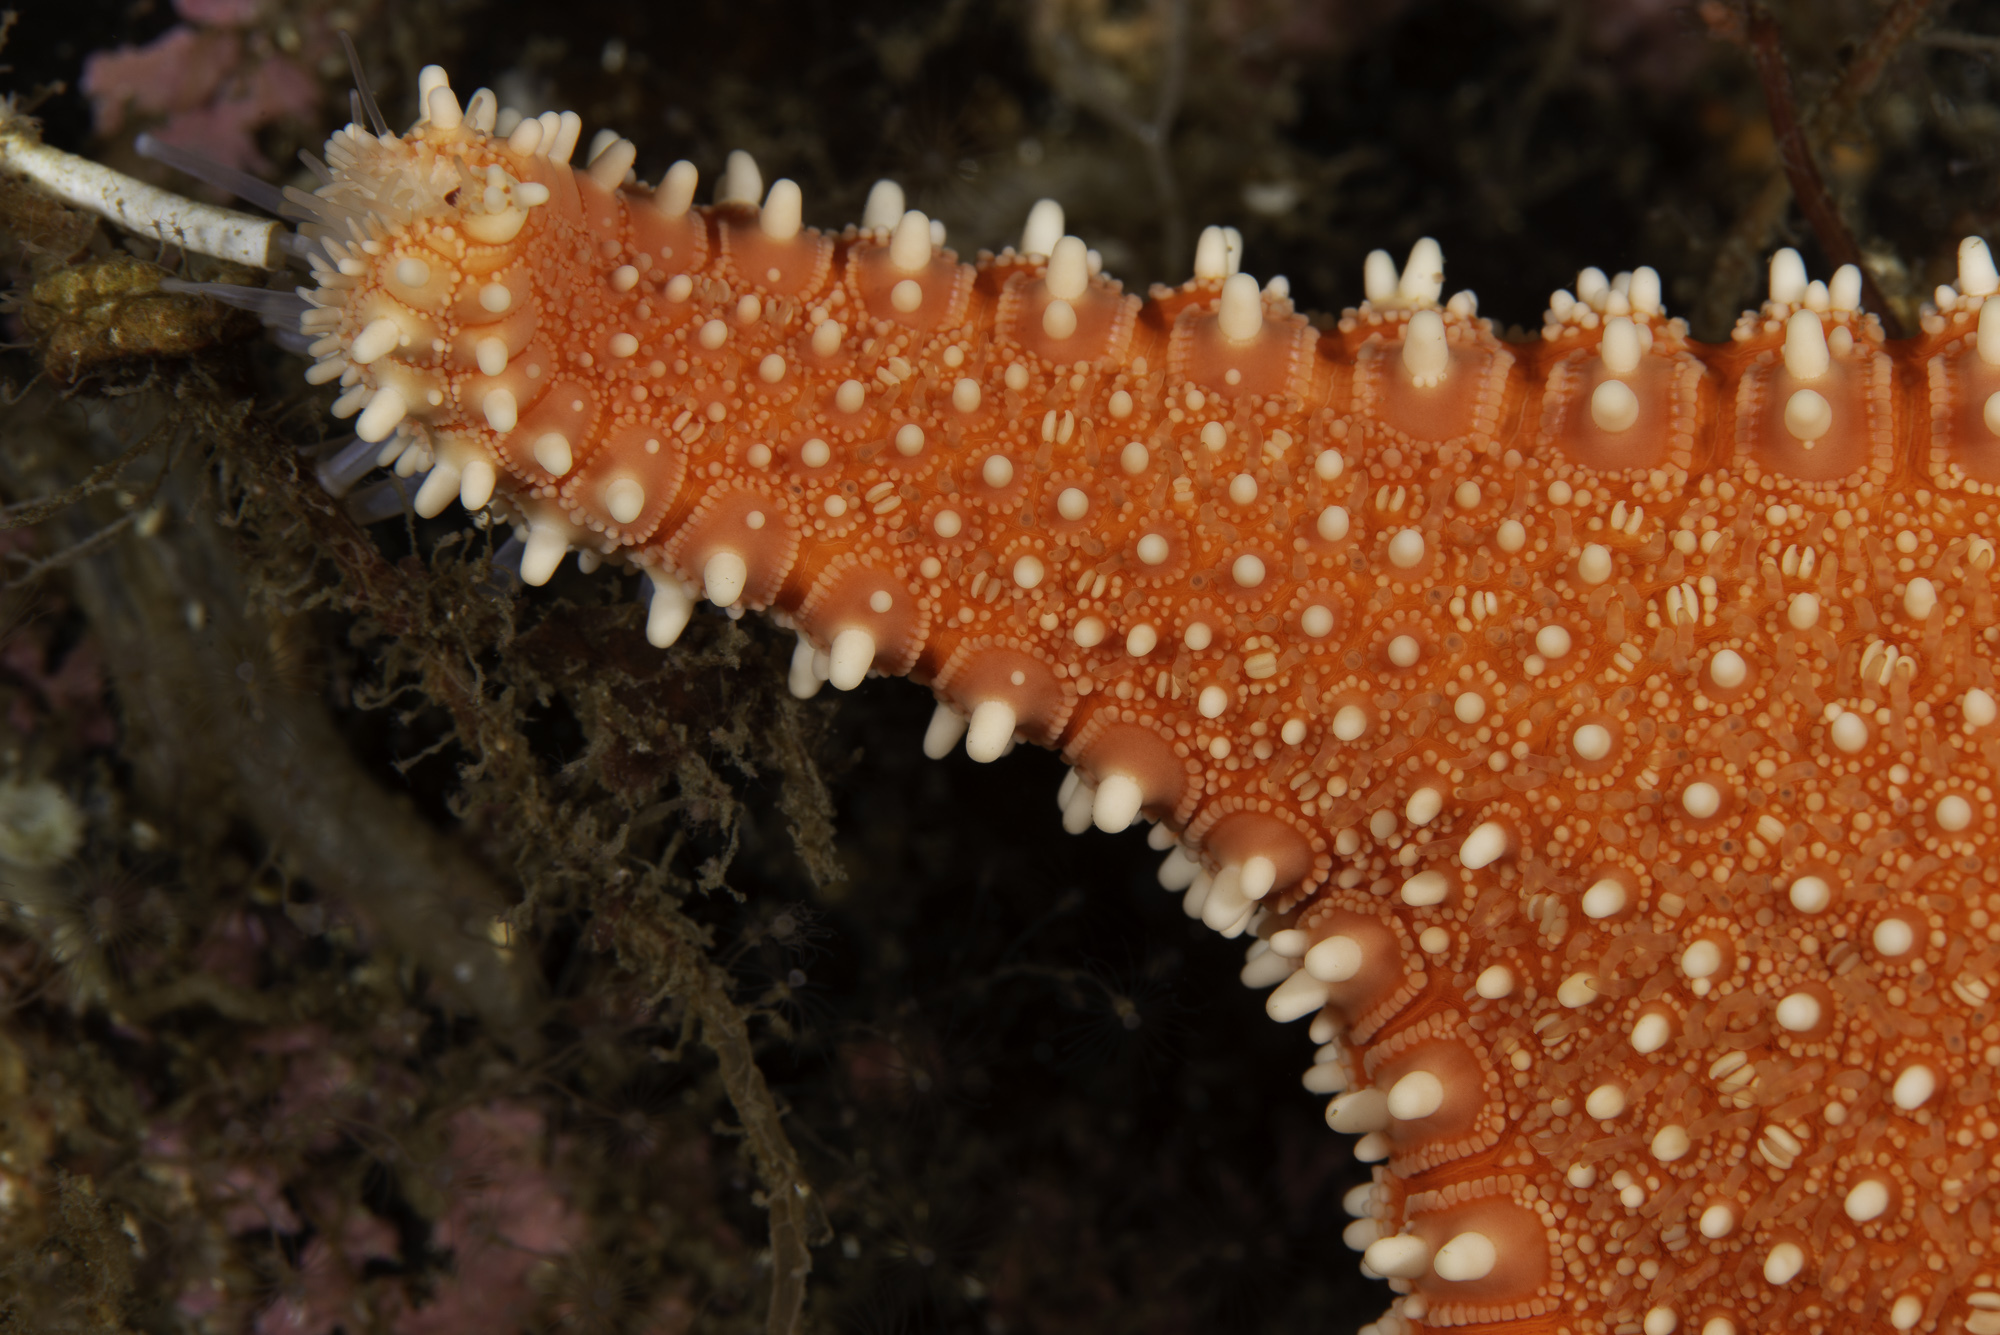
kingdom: Animalia
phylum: Echinodermata
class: Asteroidea
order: Valvatida
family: Goniasteridae
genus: Hippasteria
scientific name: Hippasteria phrygiana
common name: Arctic cushion star
